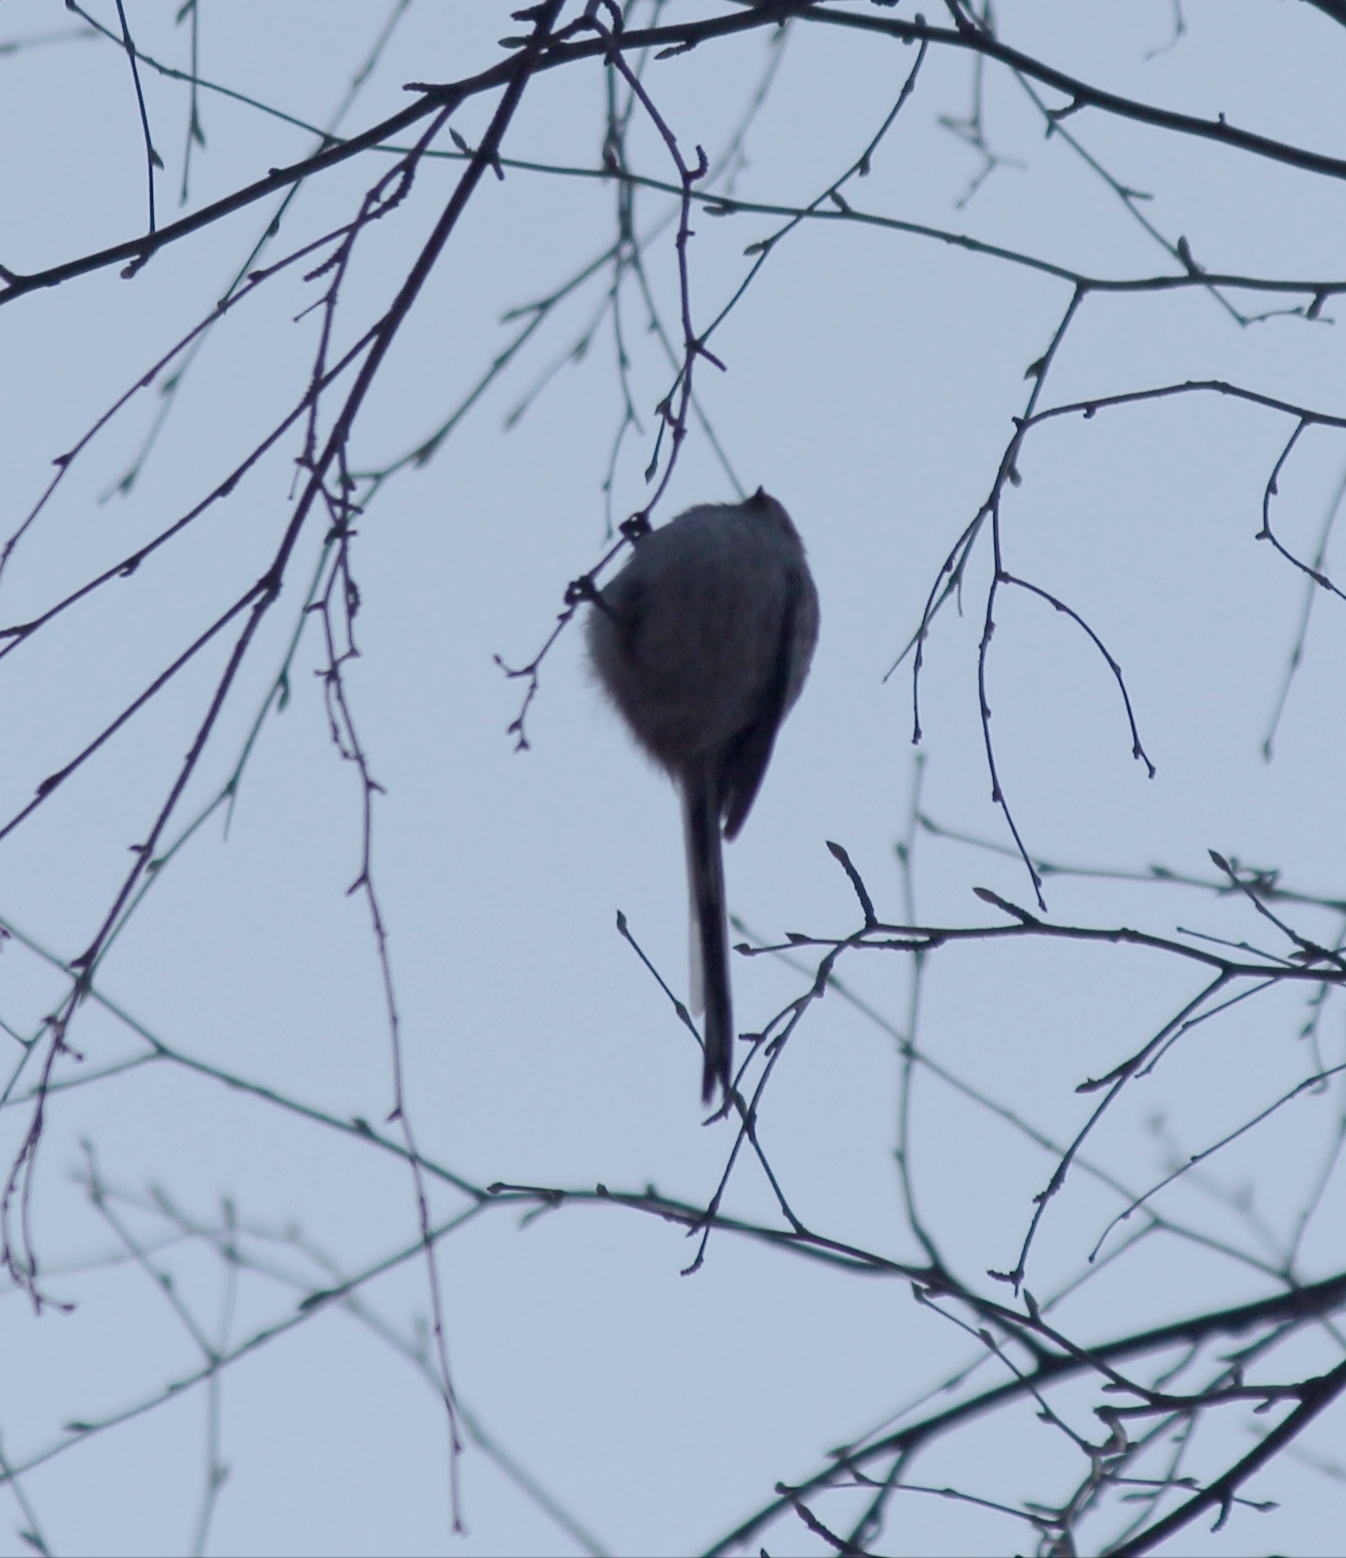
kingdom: Animalia
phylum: Chordata
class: Aves
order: Passeriformes
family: Aegithalidae
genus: Aegithalos
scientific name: Aegithalos caudatus
